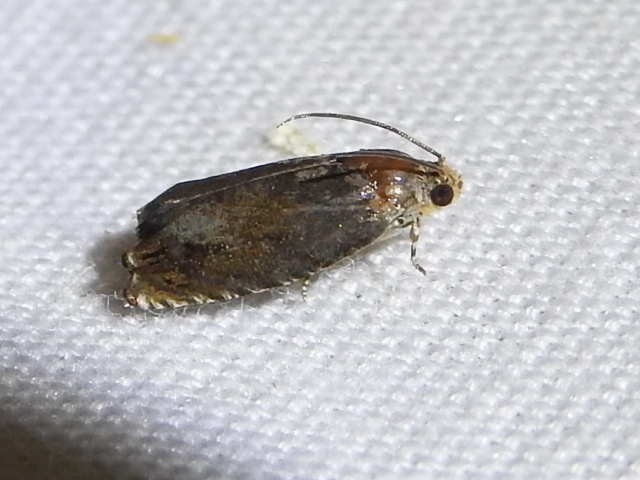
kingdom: Animalia
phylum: Arthropoda
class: Insecta
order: Lepidoptera
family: Tortricidae
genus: Cydia
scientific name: Cydia caryana
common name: Hickory shuckworm moth
